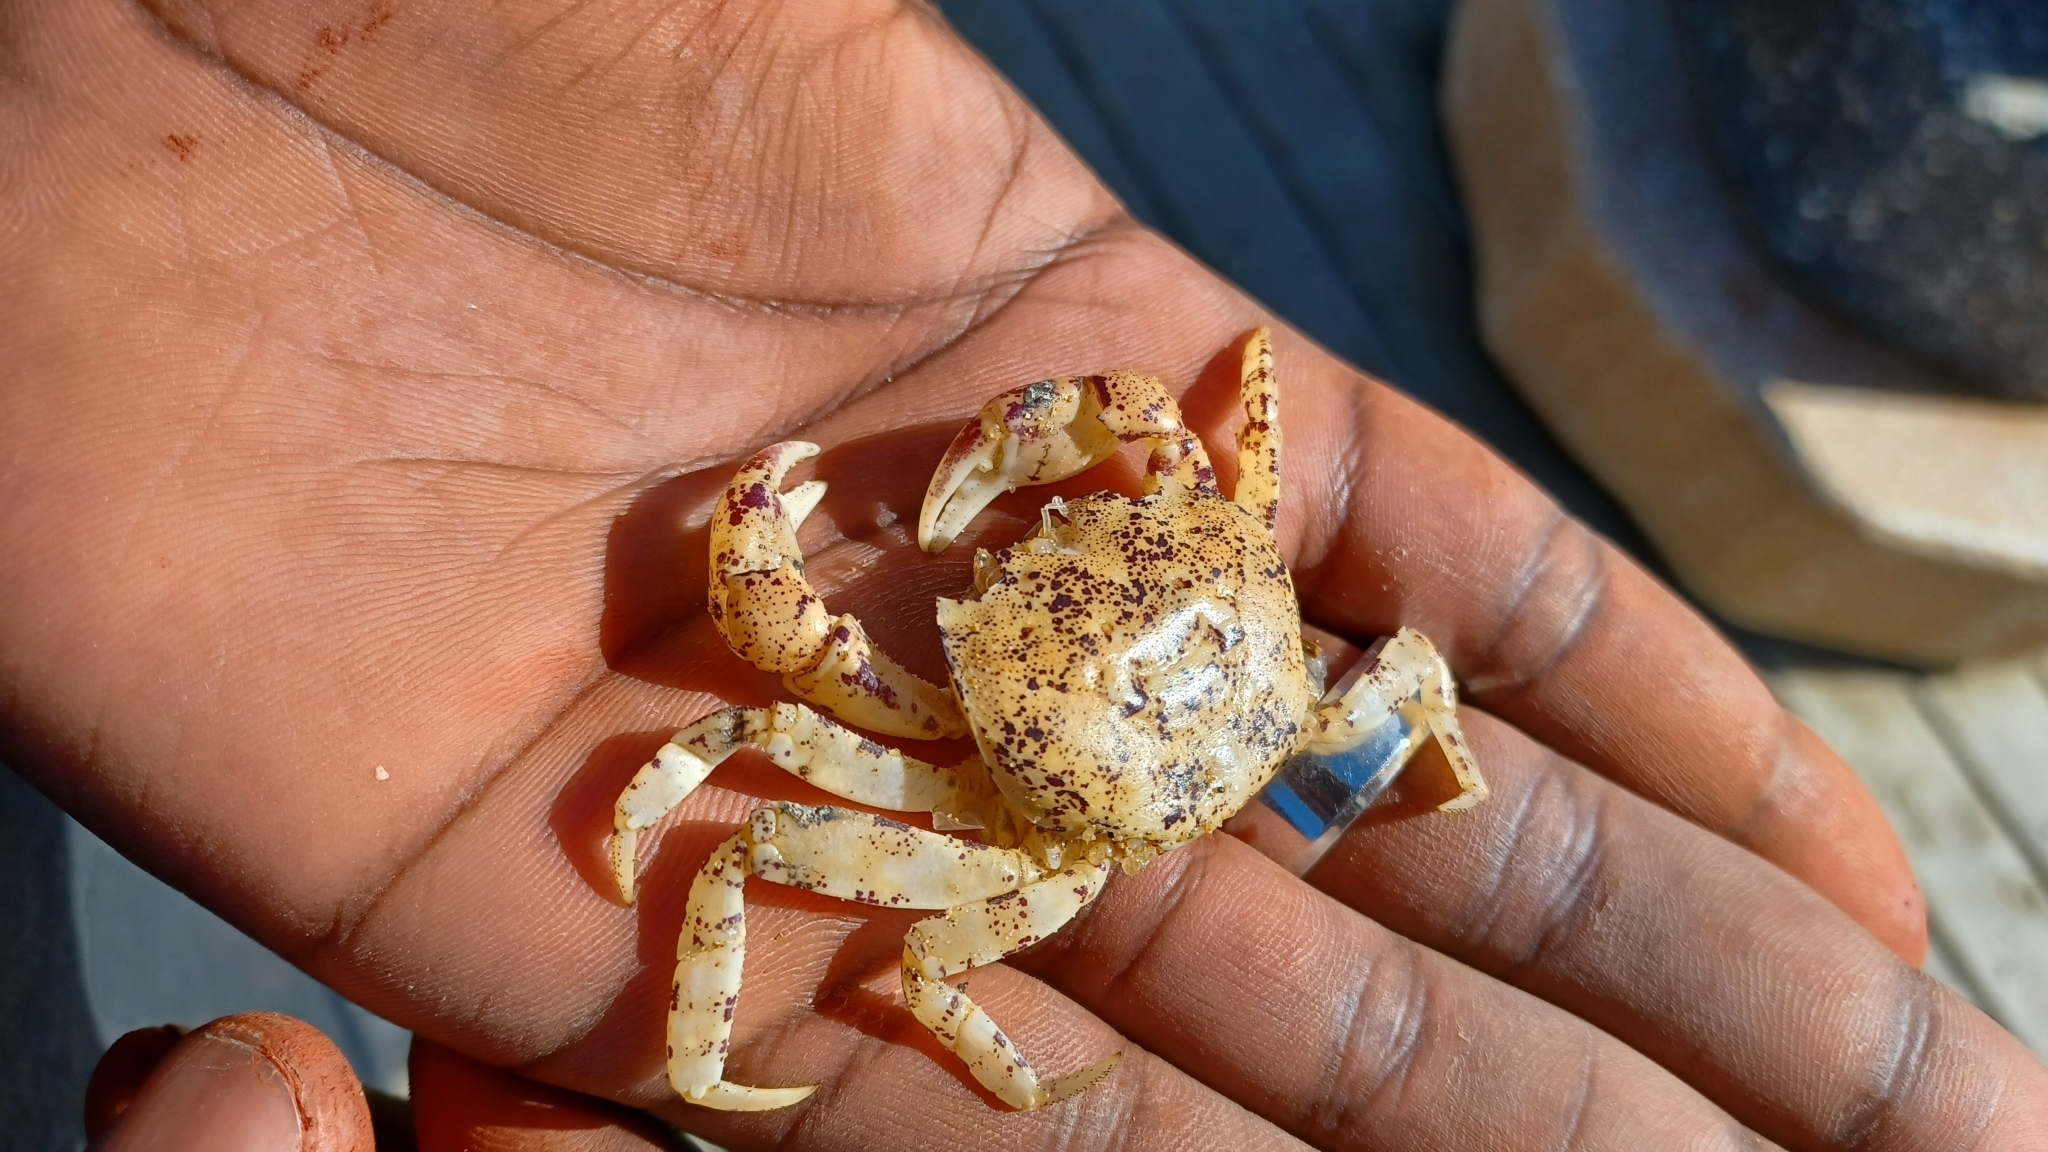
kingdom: Animalia
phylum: Arthropoda
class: Malacostraca
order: Decapoda
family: Leptograpsodidae
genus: Leptograpsodes
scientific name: Leptograpsodes octodentatus
